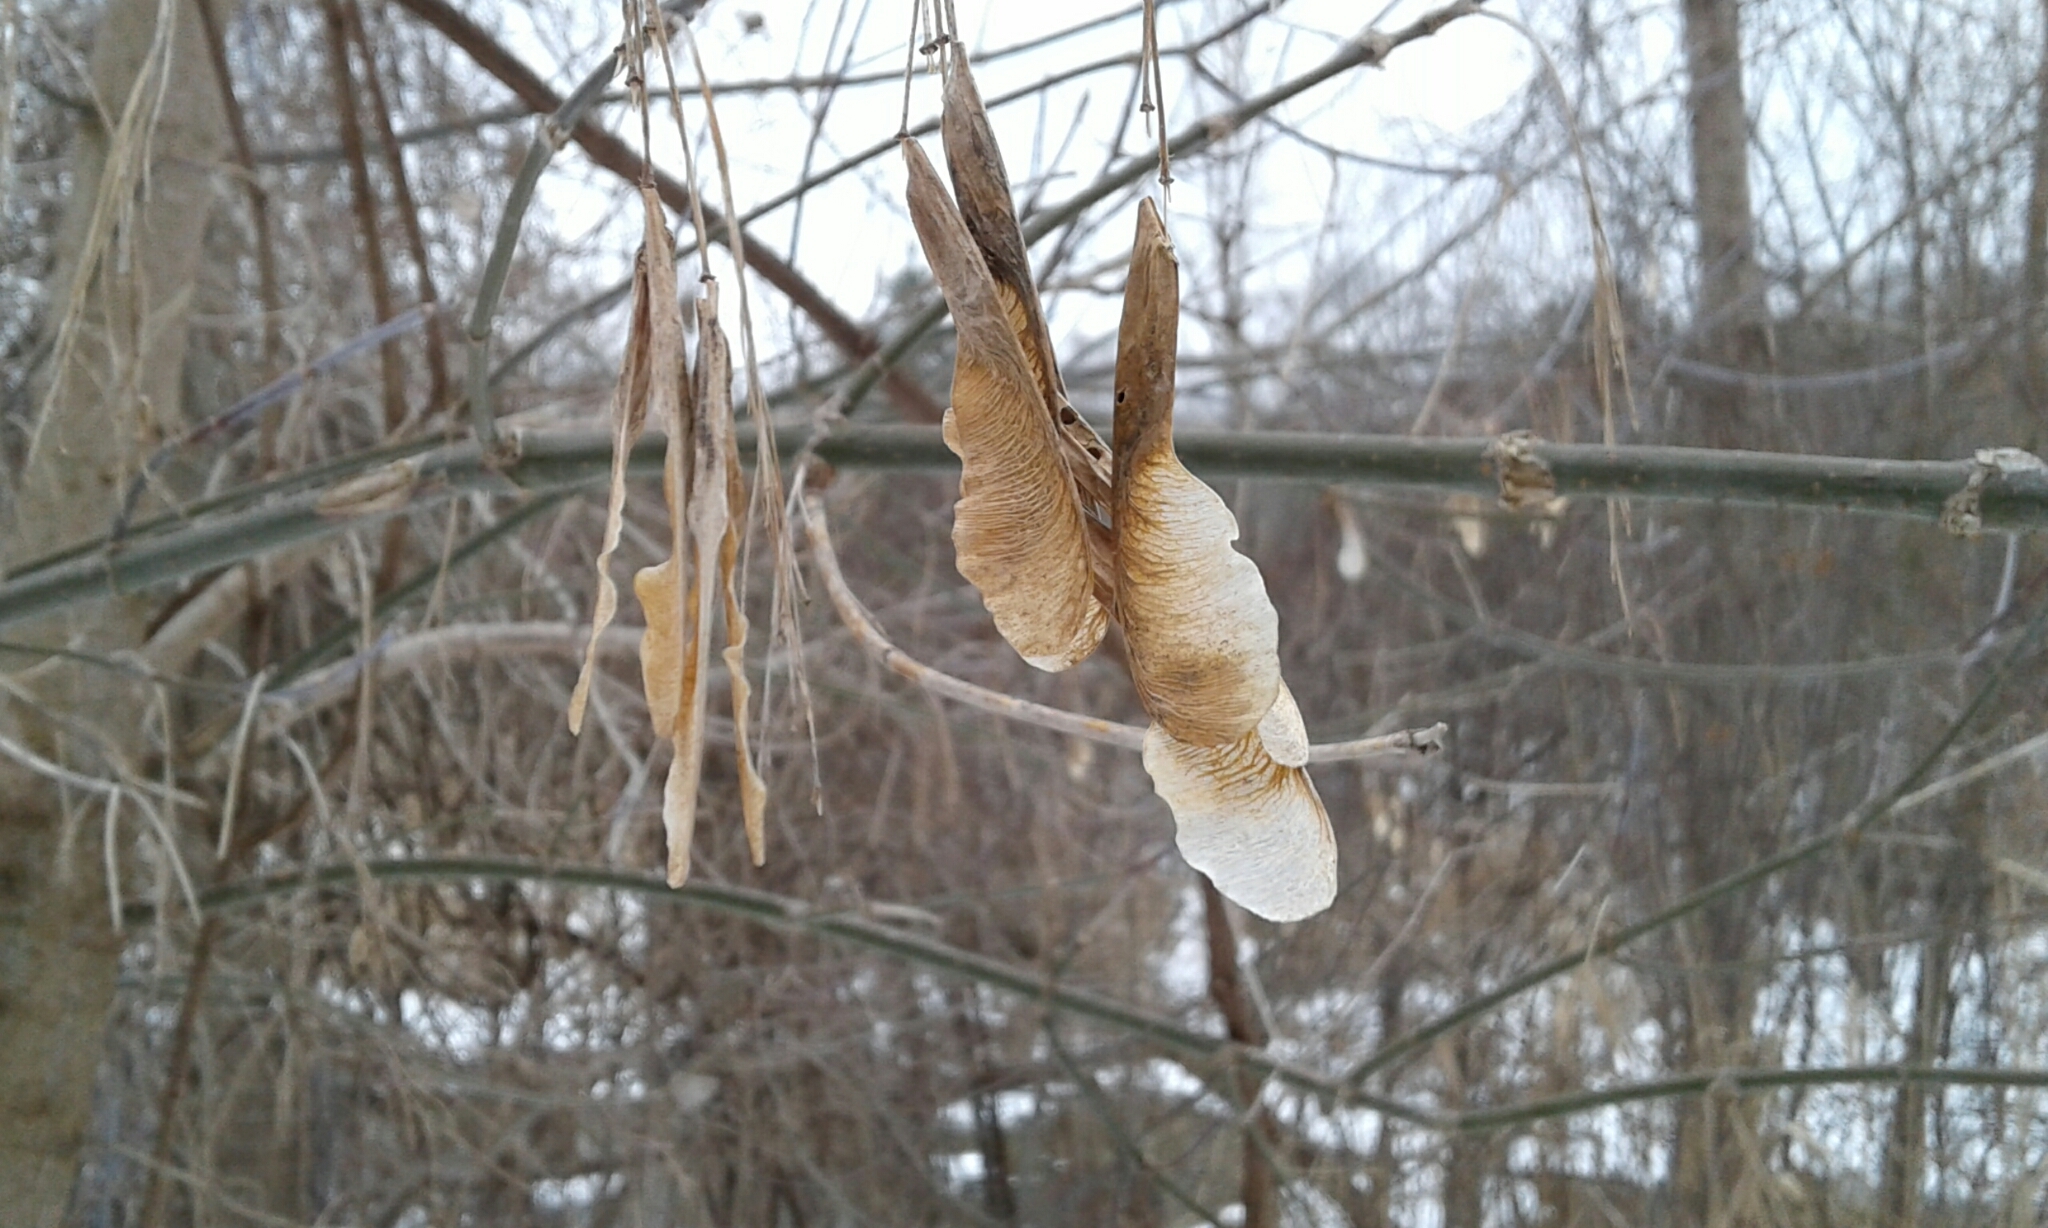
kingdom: Plantae
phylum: Tracheophyta
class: Magnoliopsida
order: Sapindales
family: Sapindaceae
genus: Acer
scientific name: Acer negundo
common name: Ashleaf maple
